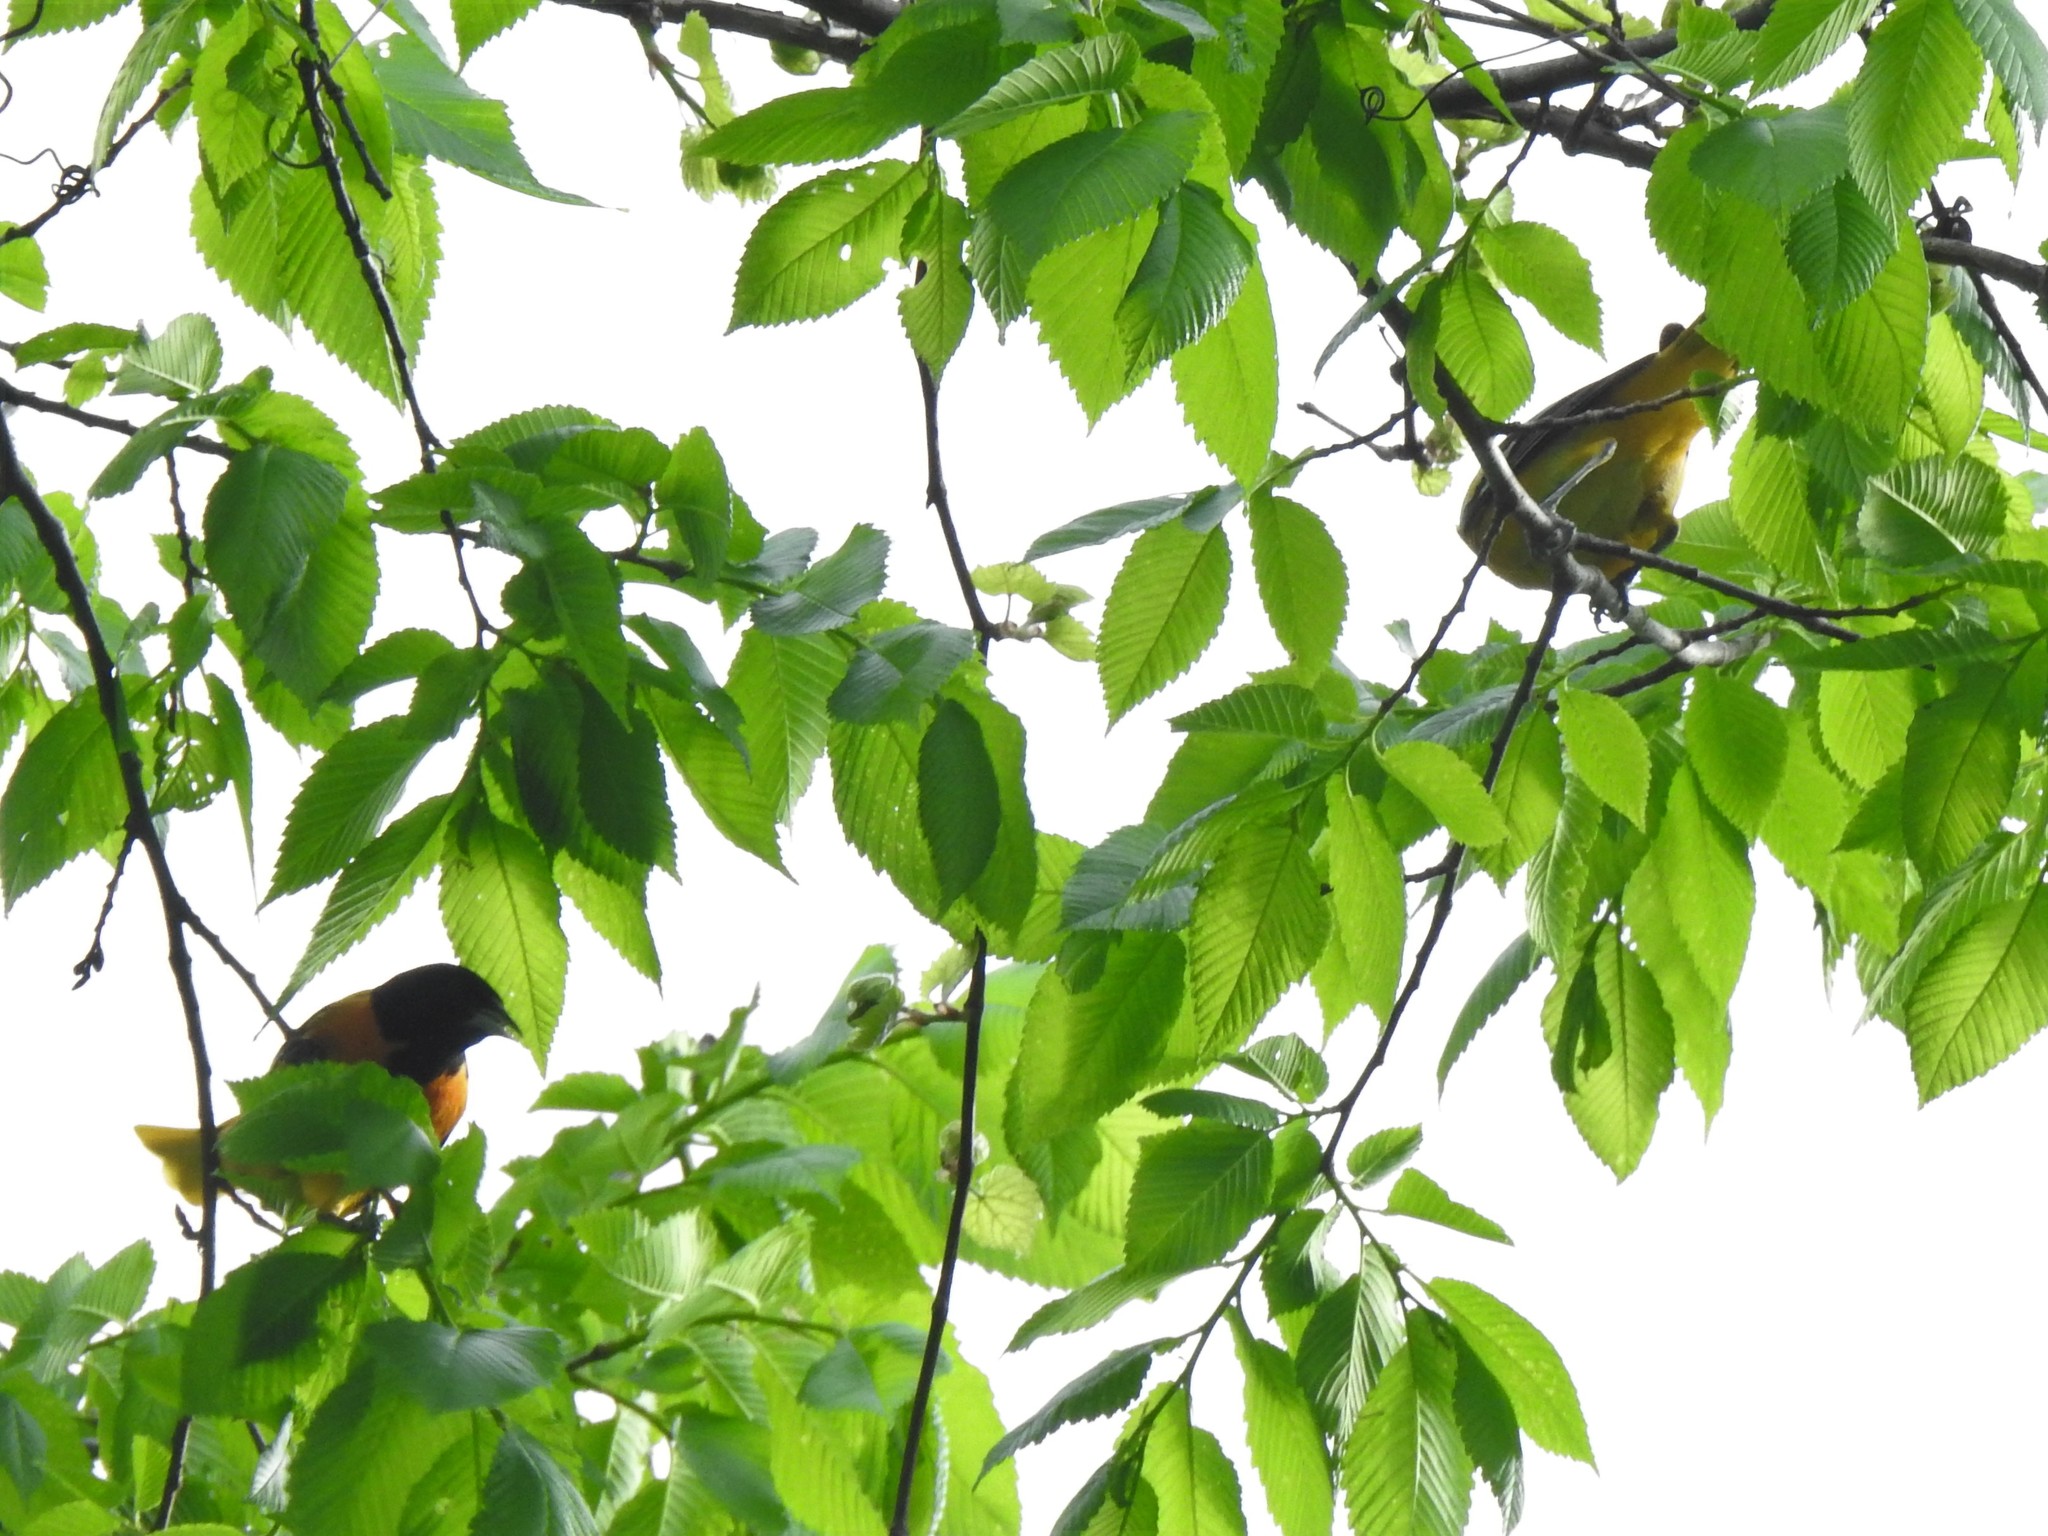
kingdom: Animalia
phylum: Chordata
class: Aves
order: Passeriformes
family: Icteridae
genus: Icterus
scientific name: Icterus galbula
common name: Baltimore oriole
